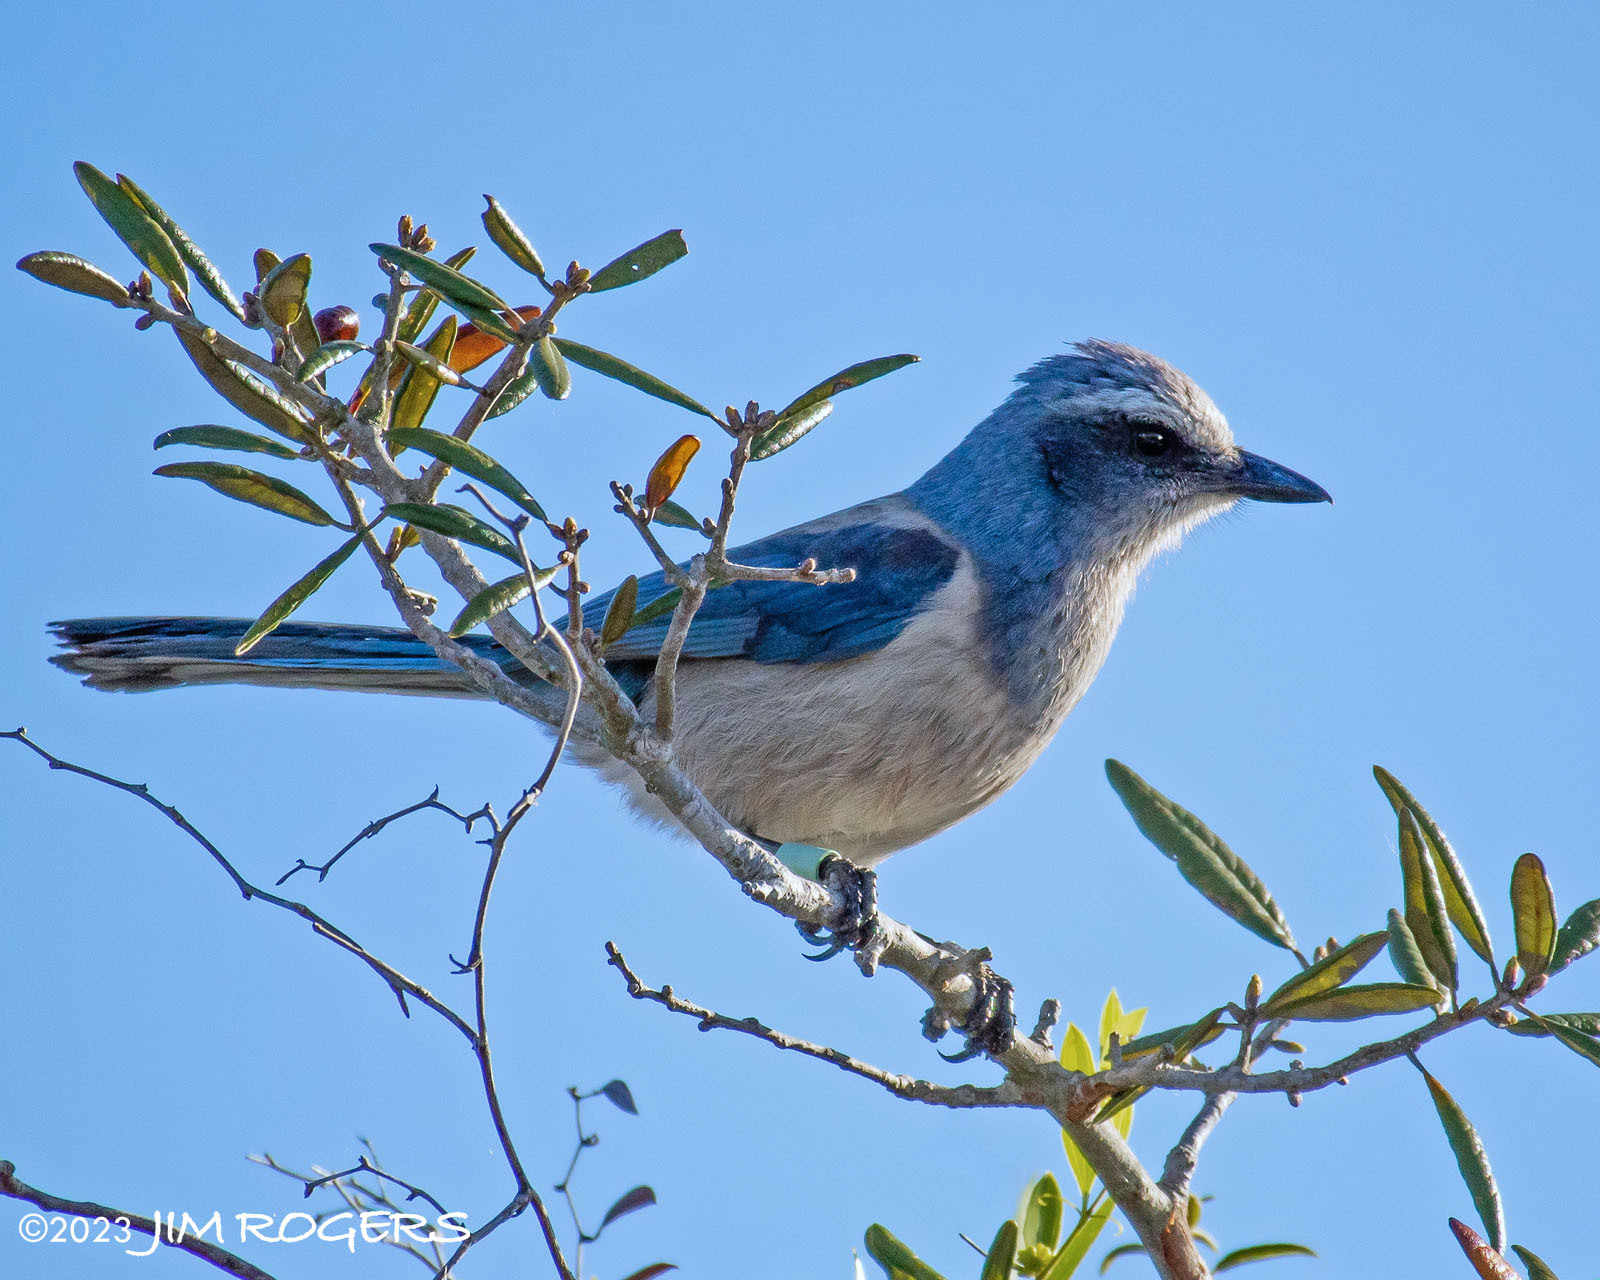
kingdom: Animalia
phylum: Chordata
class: Aves
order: Passeriformes
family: Corvidae
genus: Aphelocoma
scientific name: Aphelocoma coerulescens
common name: Florida scrub jay
